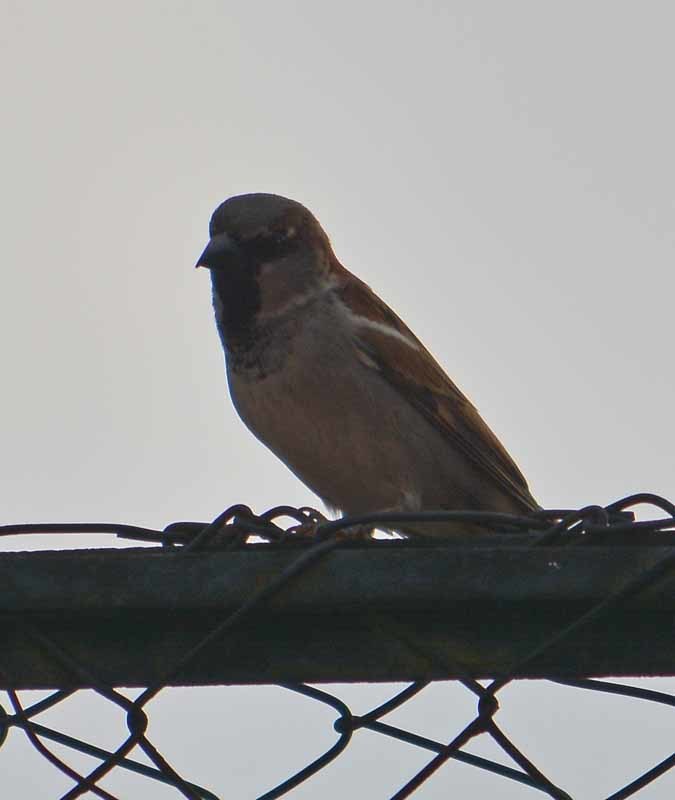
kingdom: Animalia
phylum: Chordata
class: Aves
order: Passeriformes
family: Passeridae
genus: Passer
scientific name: Passer domesticus
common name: House sparrow
